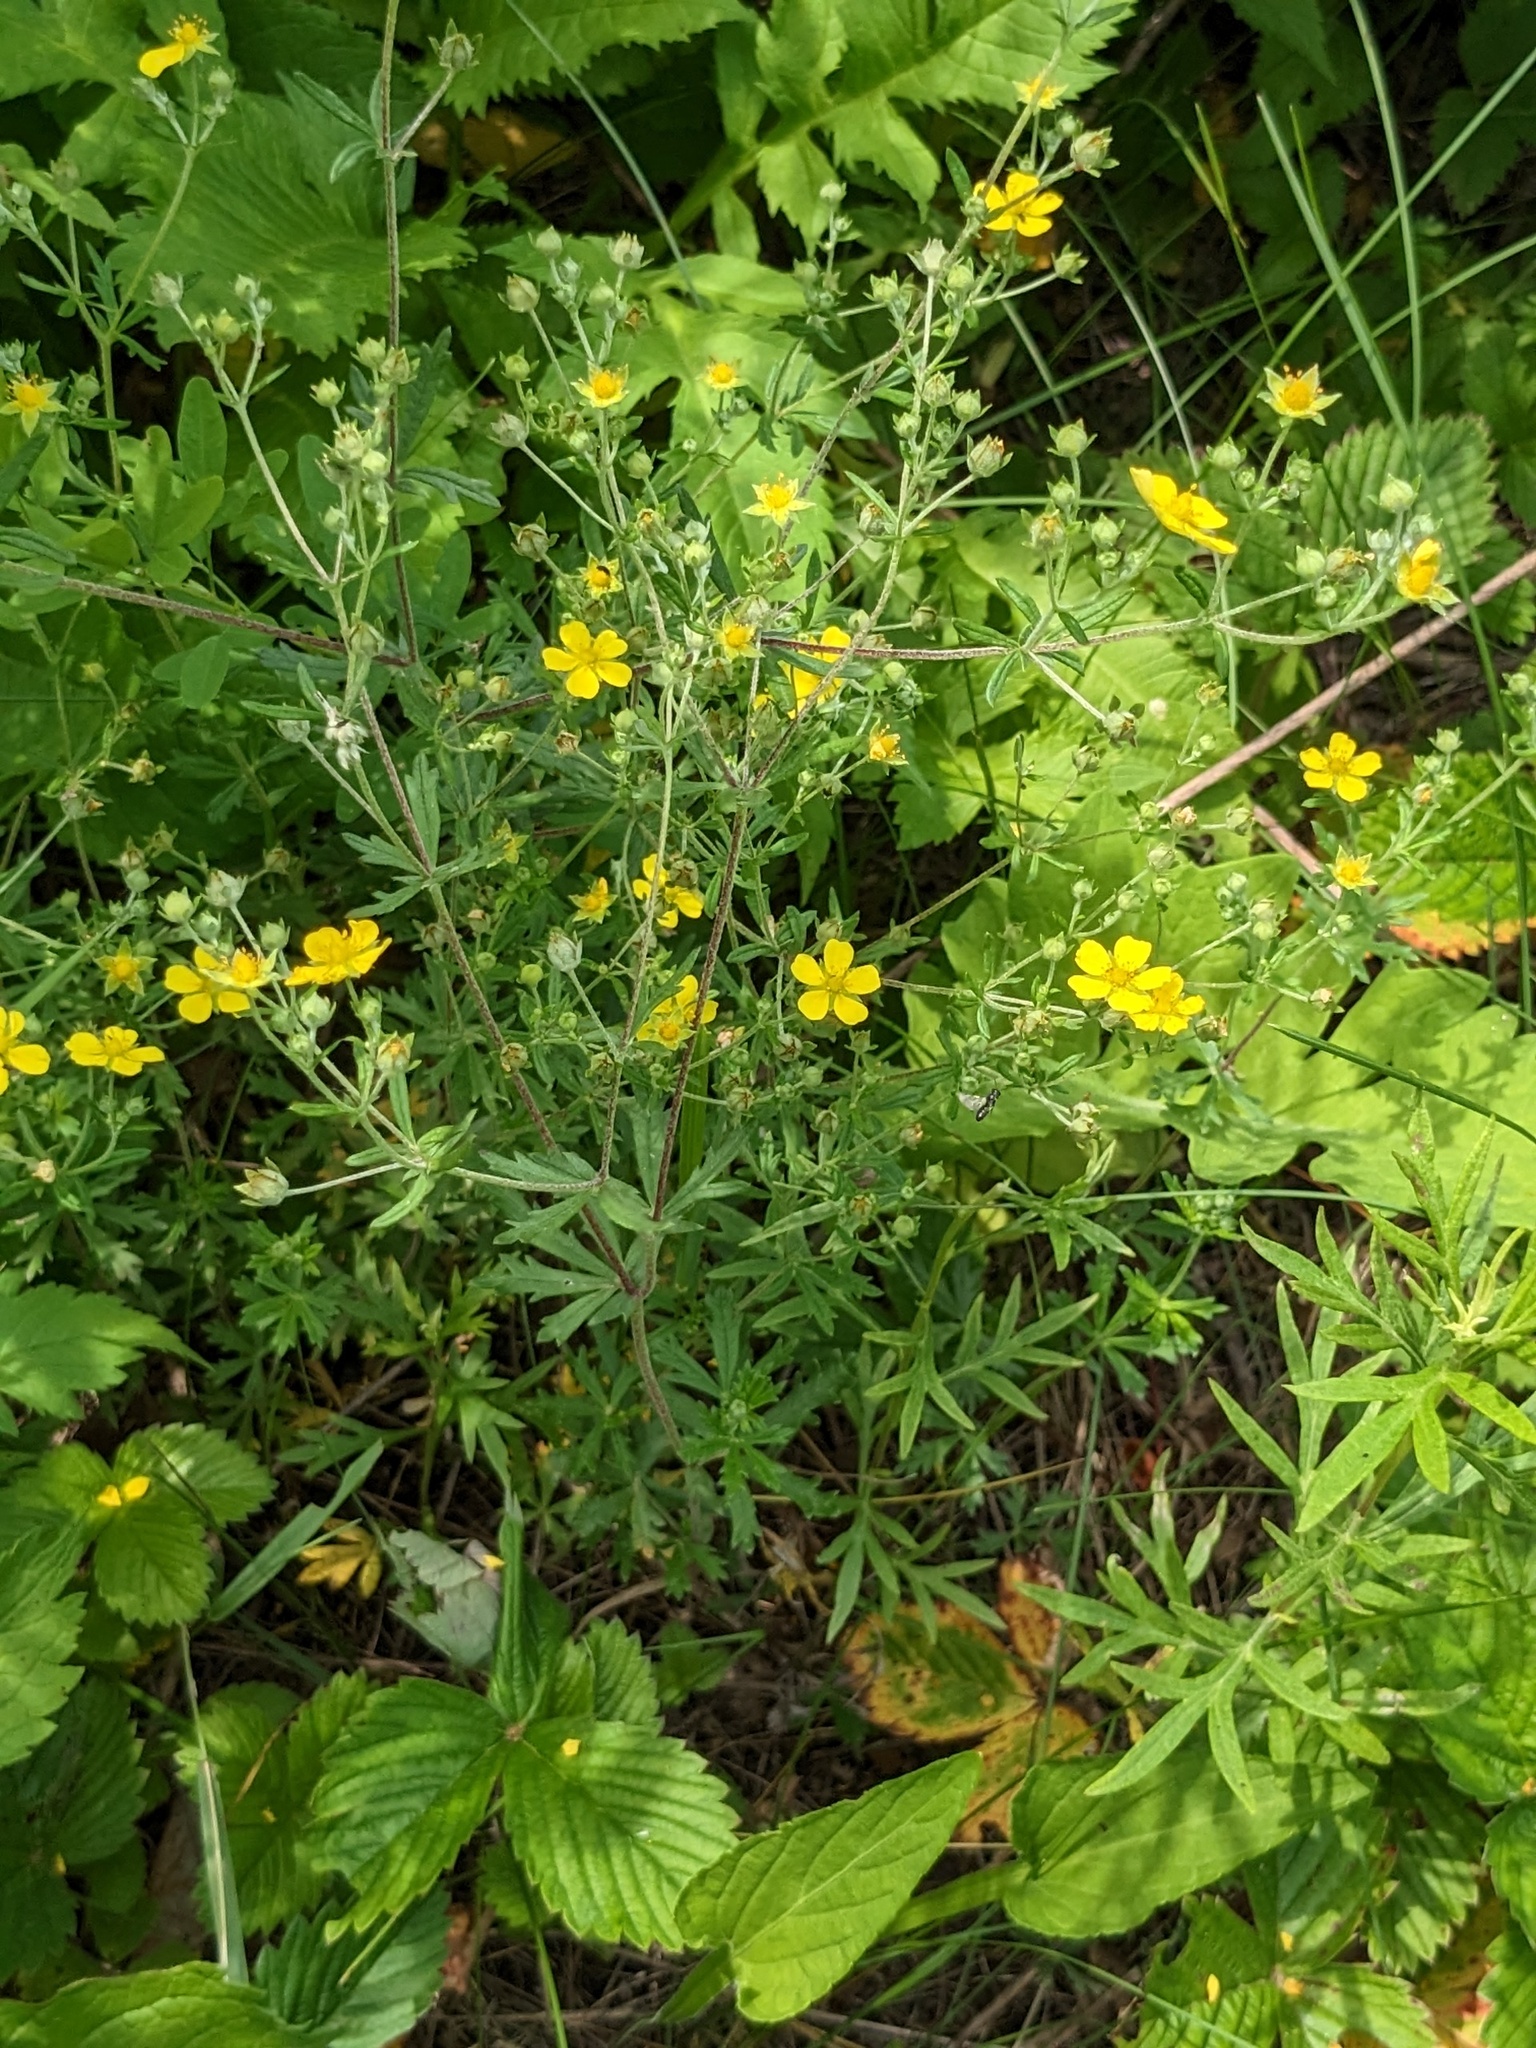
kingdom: Plantae
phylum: Tracheophyta
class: Magnoliopsida
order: Rosales
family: Rosaceae
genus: Potentilla
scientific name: Potentilla argentea
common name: Hoary cinquefoil
